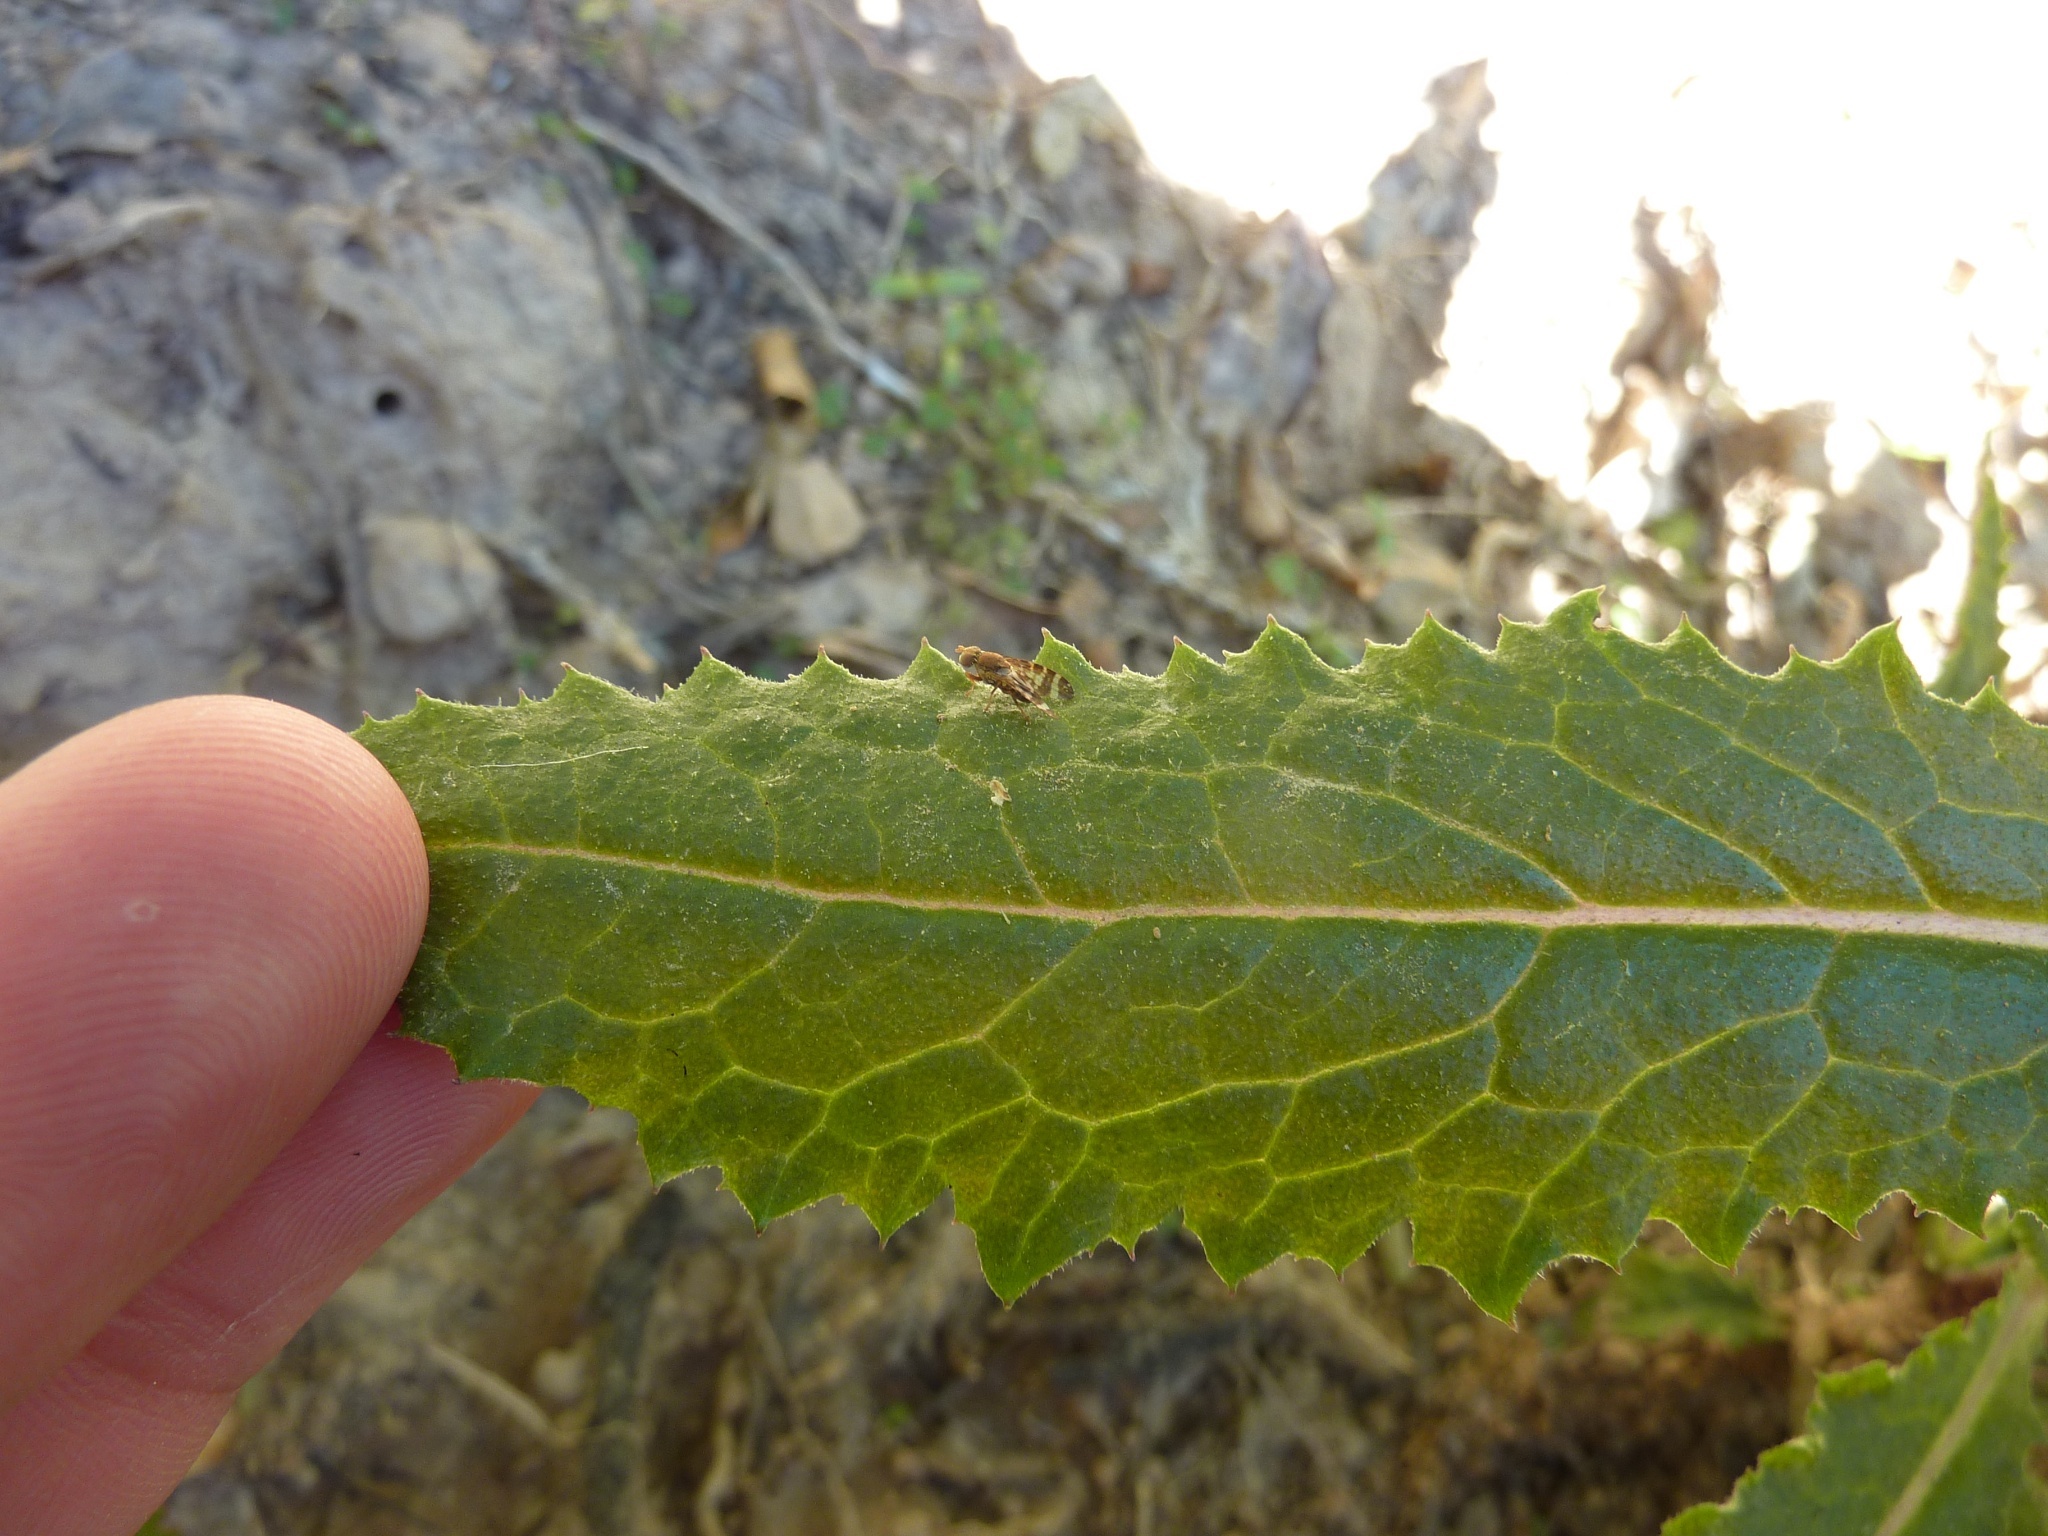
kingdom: Animalia
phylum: Arthropoda
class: Insecta
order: Diptera
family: Tephritidae
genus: Sphenella
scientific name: Sphenella
